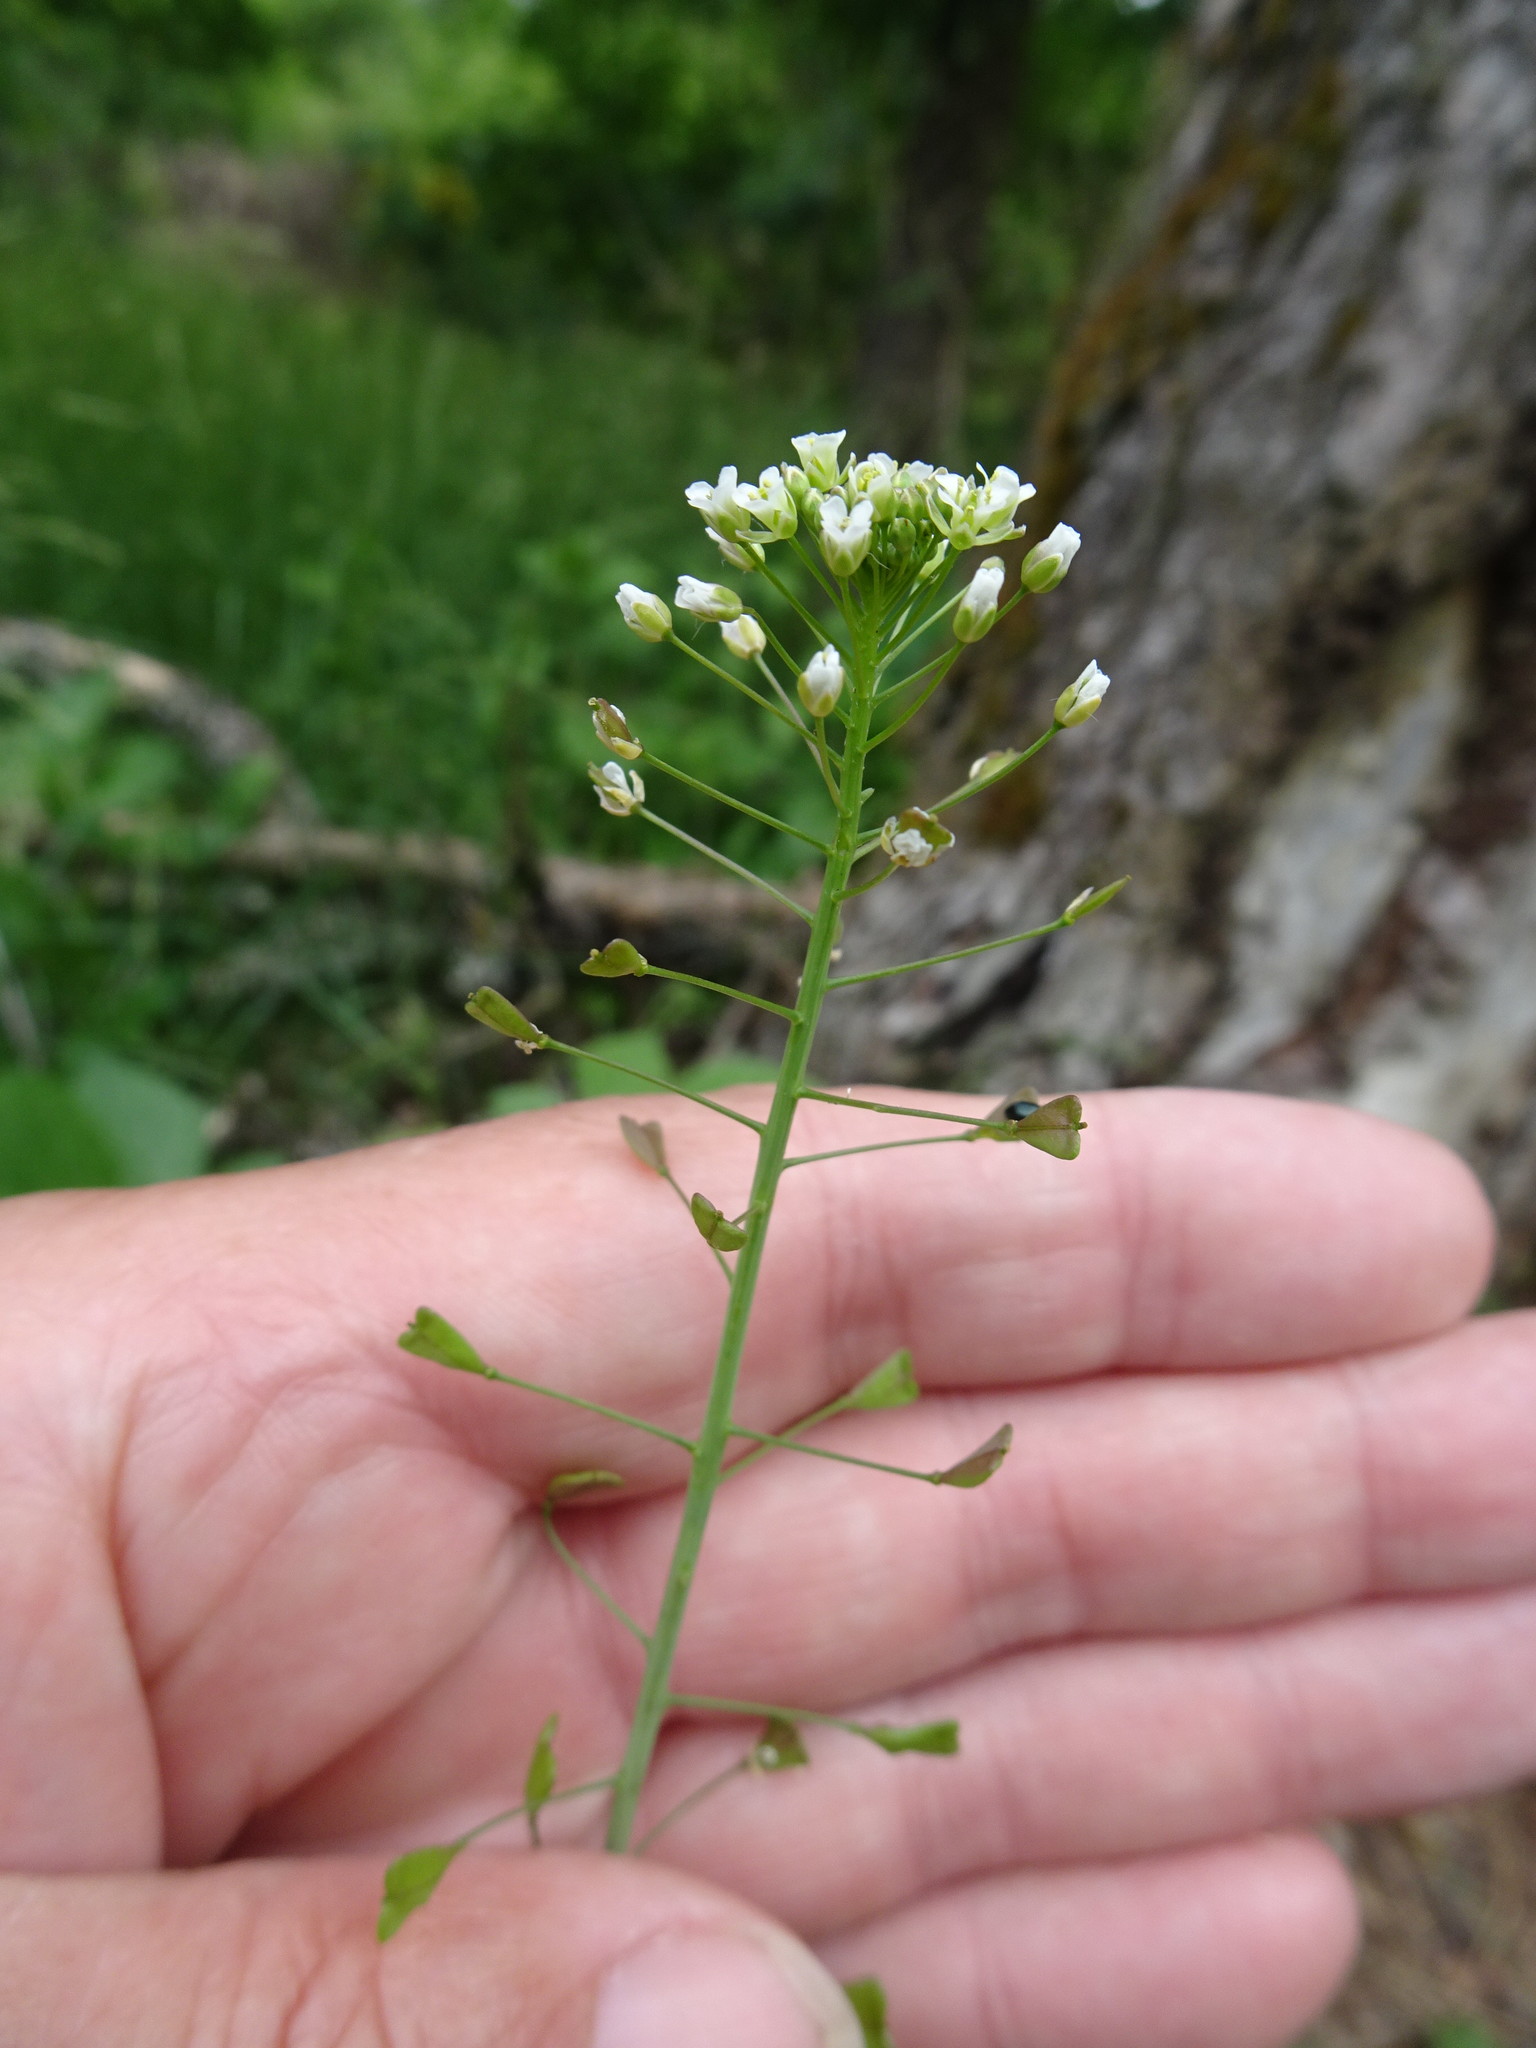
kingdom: Plantae
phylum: Tracheophyta
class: Magnoliopsida
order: Brassicales
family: Brassicaceae
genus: Capsella
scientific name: Capsella bursa-pastoris
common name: Shepherd's purse
